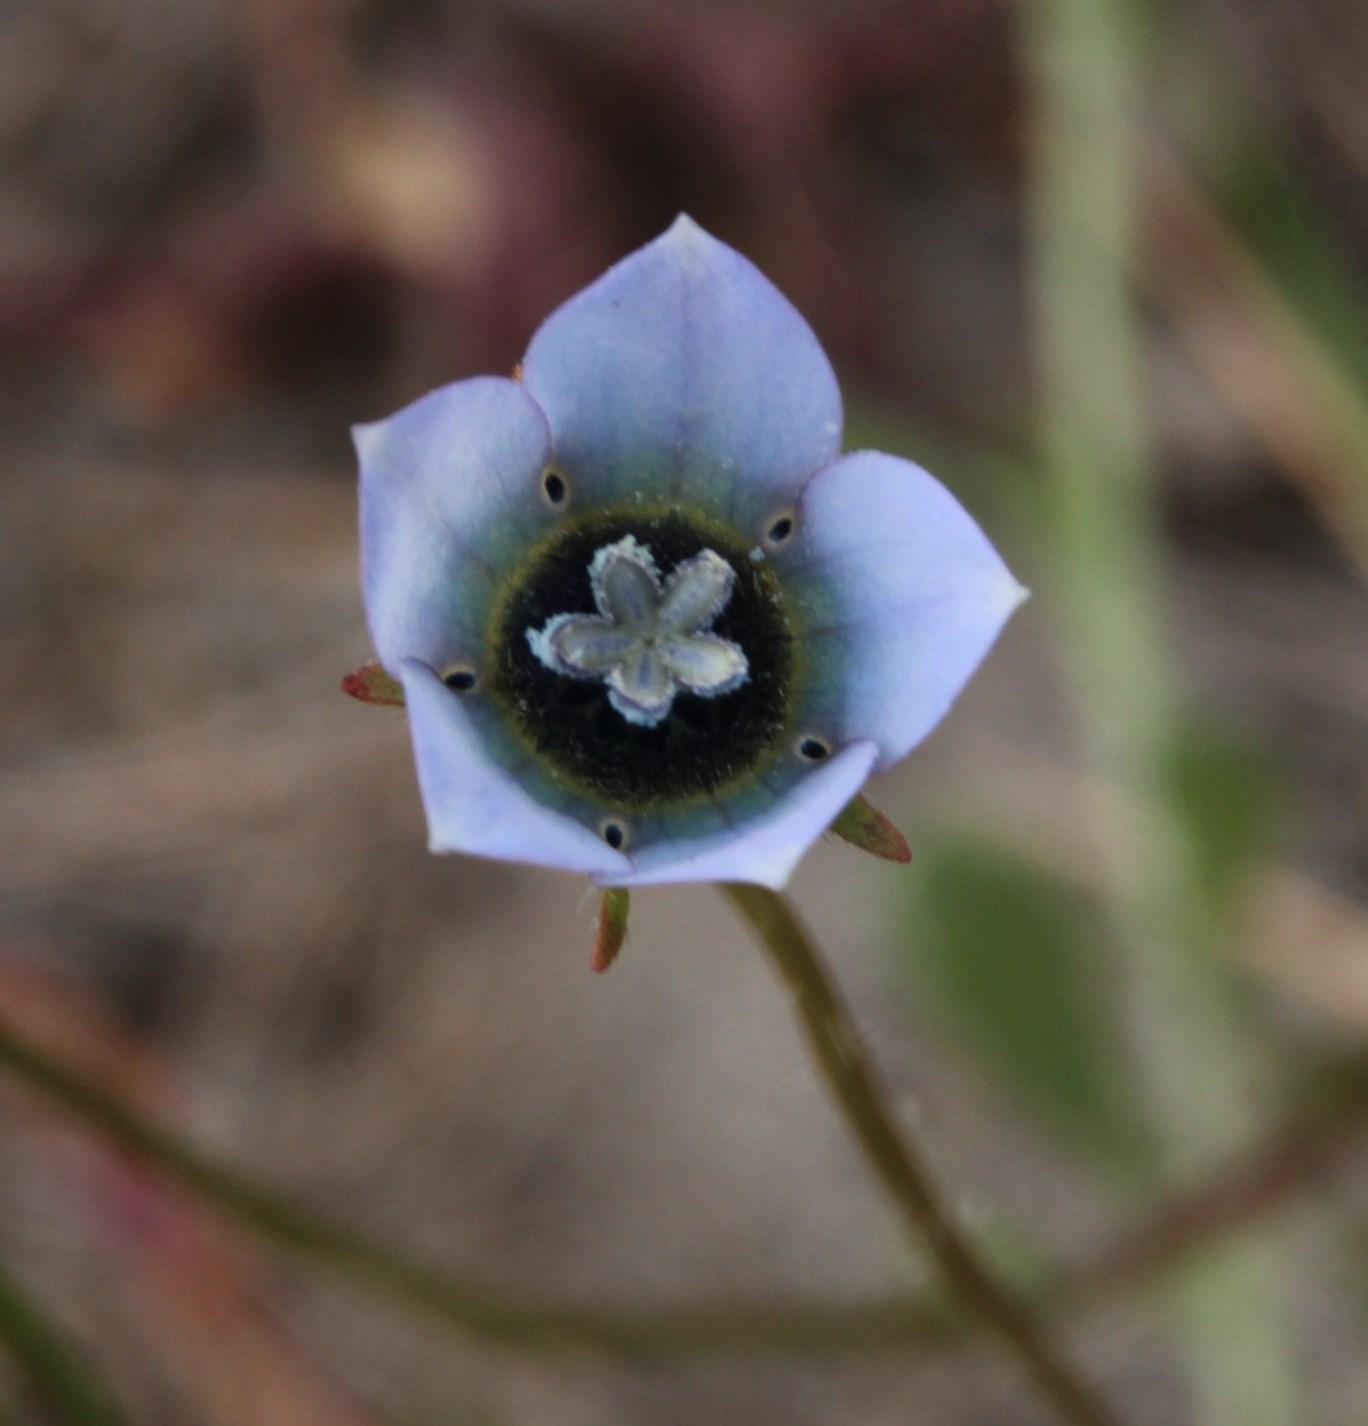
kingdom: Plantae
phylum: Tracheophyta
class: Magnoliopsida
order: Asterales
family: Campanulaceae
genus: Wahlenbergia
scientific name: Wahlenbergia capensis
